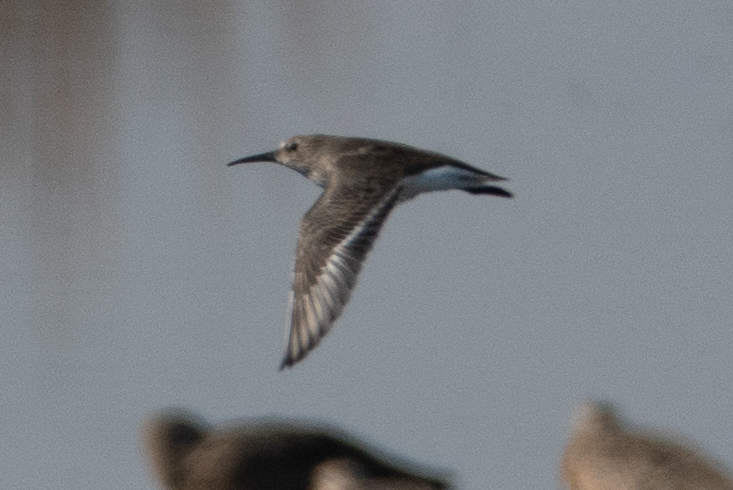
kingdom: Animalia
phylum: Chordata
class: Aves
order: Charadriiformes
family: Scolopacidae
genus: Calidris
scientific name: Calidris alpina
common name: Dunlin
